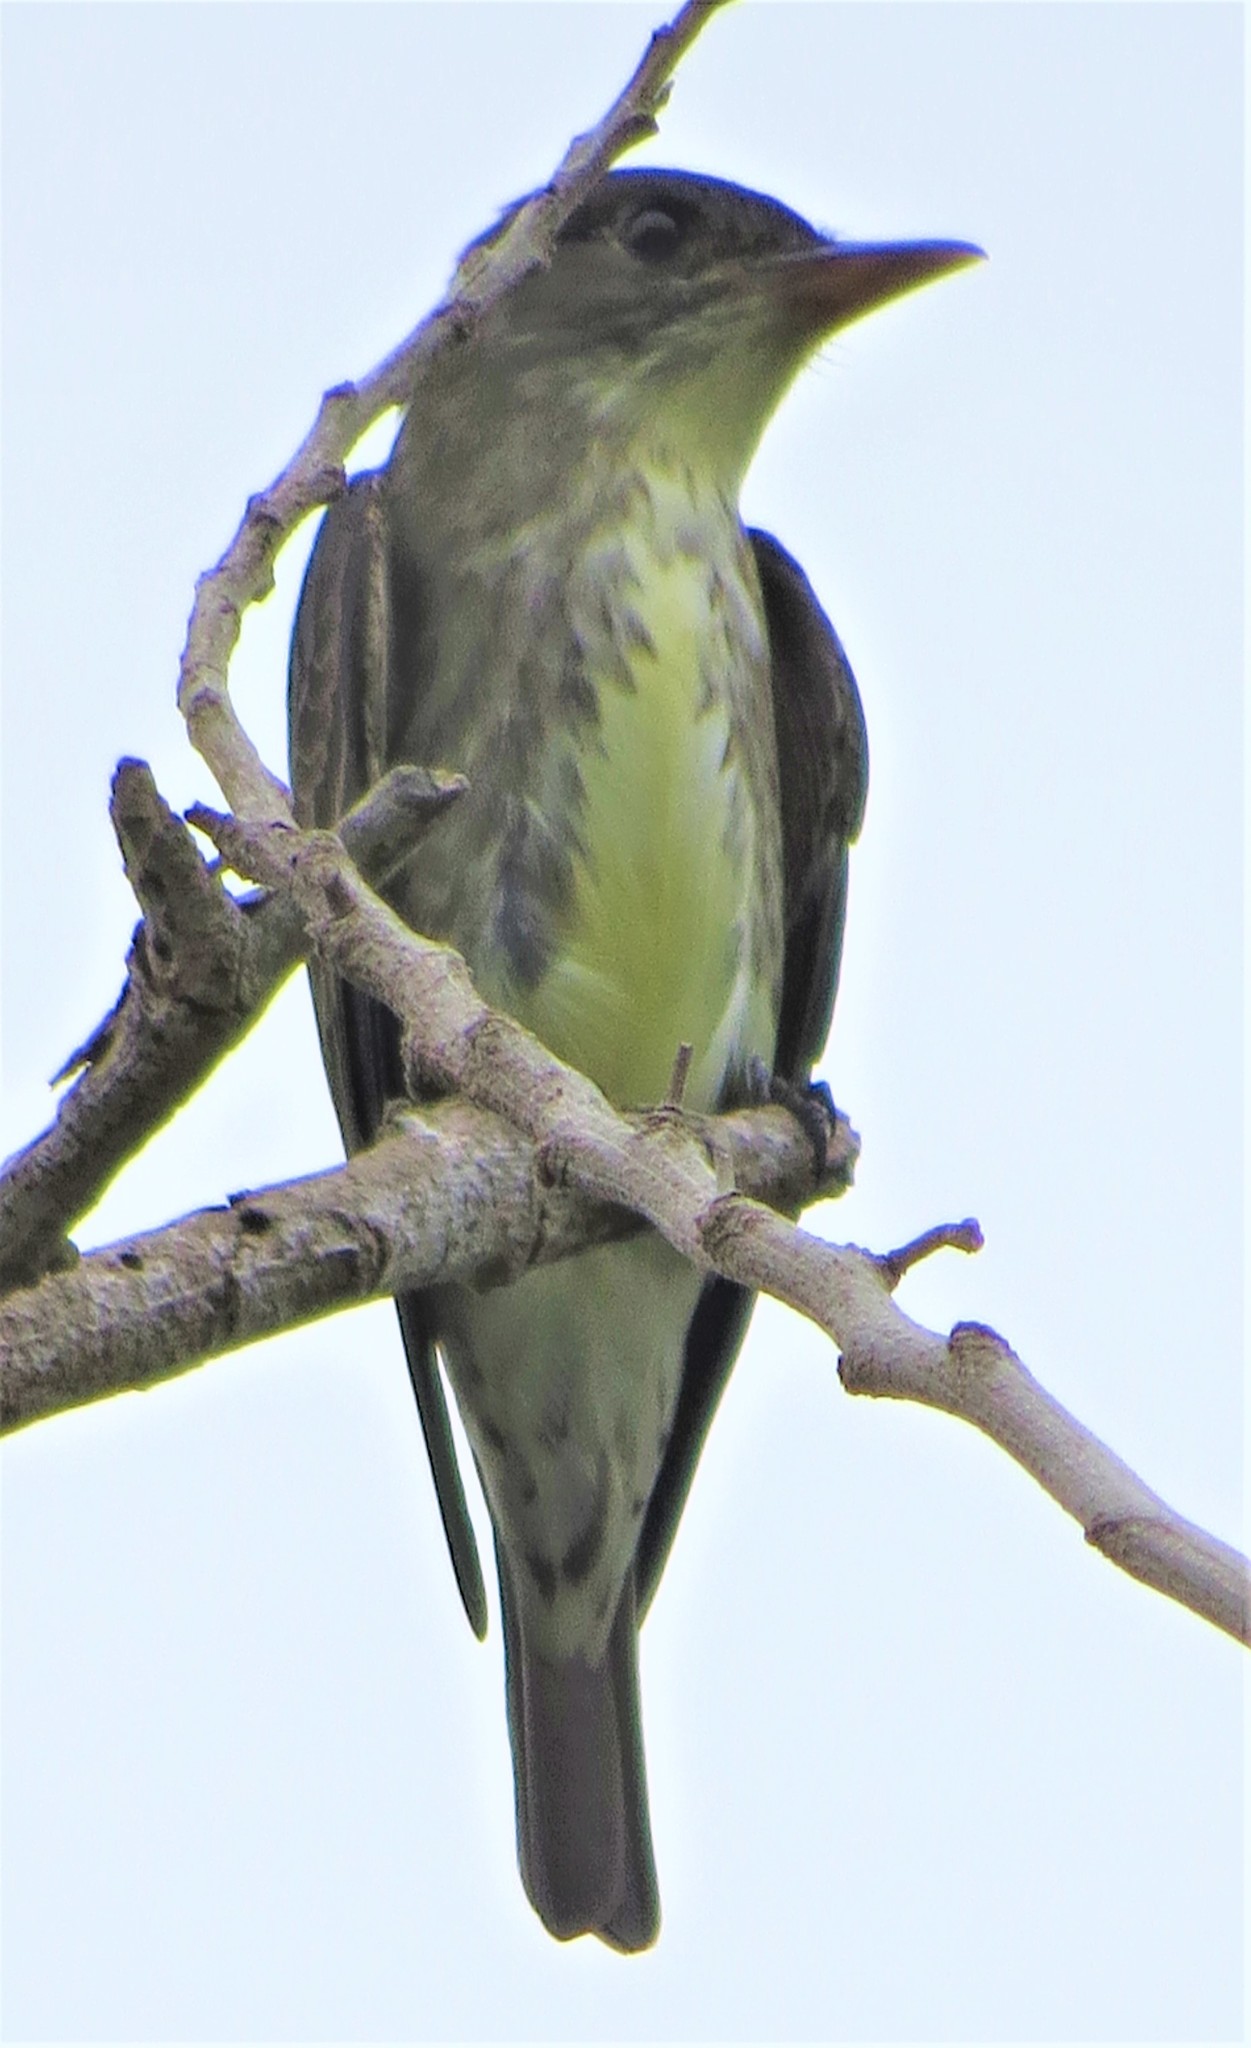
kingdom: Animalia
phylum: Chordata
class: Aves
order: Passeriformes
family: Tyrannidae
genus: Contopus
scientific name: Contopus cooperi
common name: Olive-sided flycatcher
